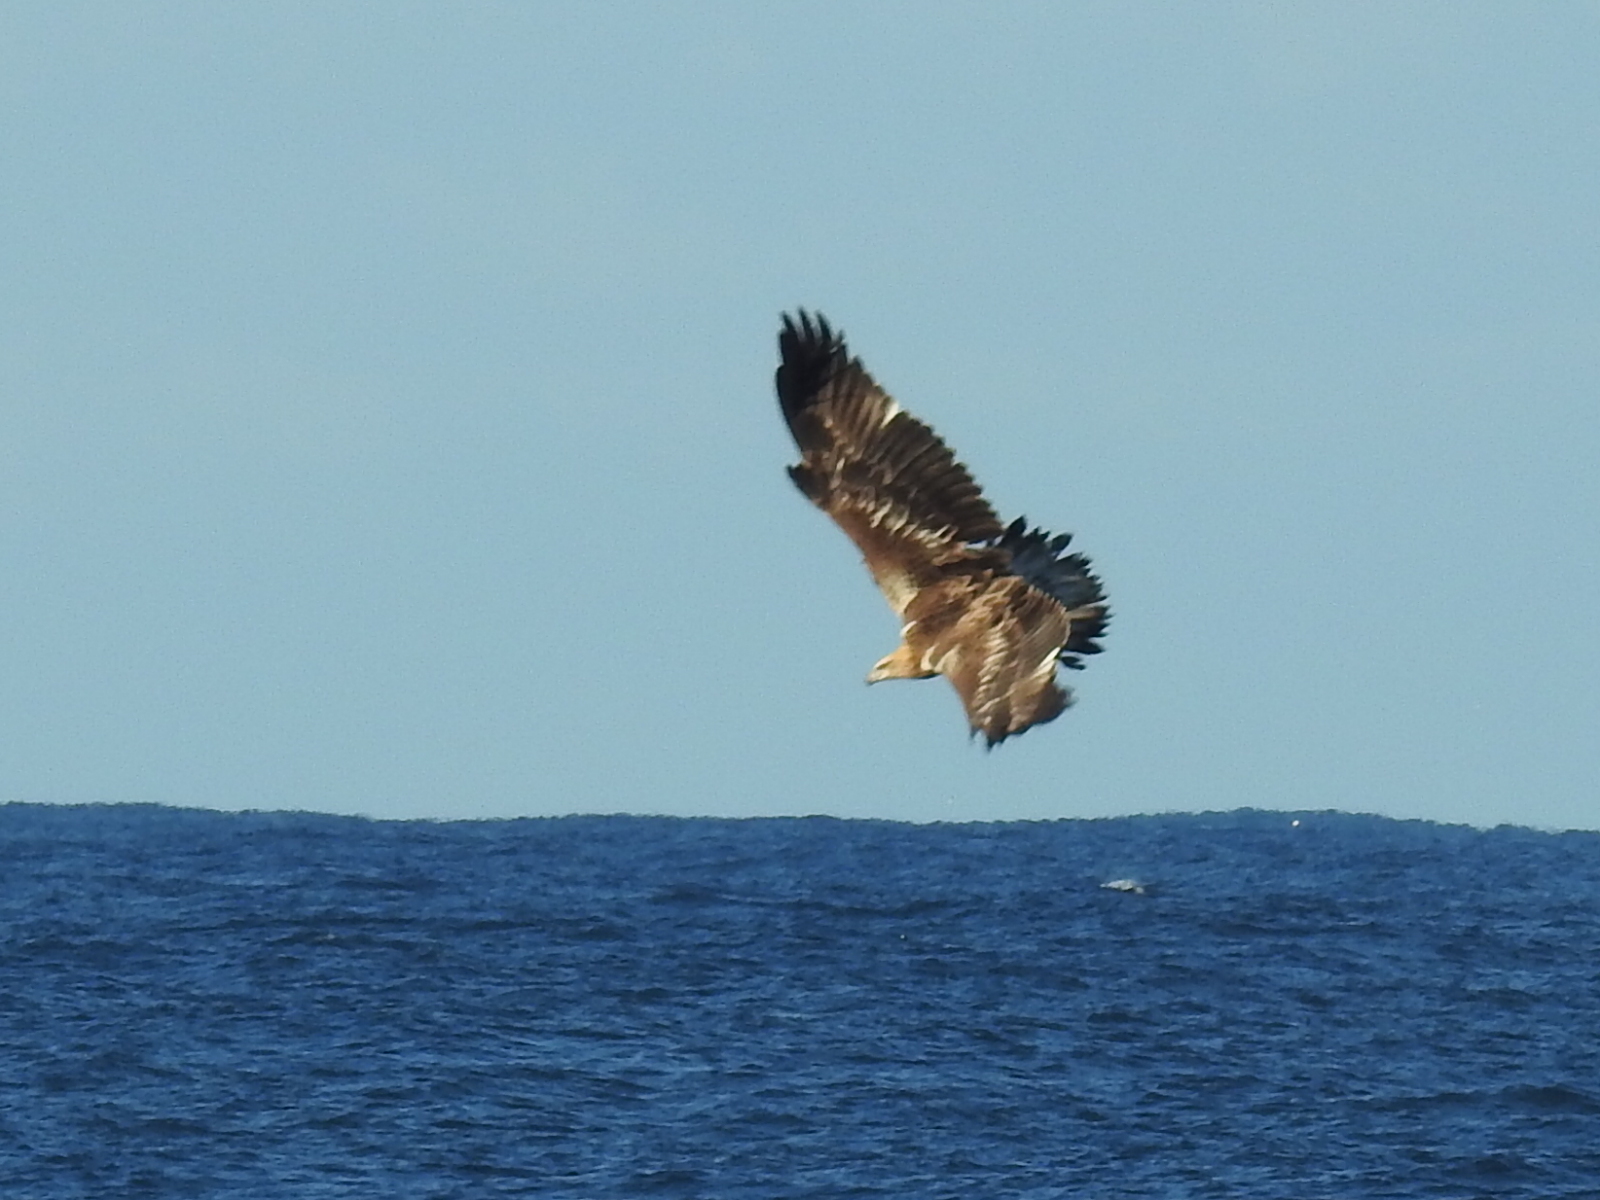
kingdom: Animalia
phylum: Chordata
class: Aves
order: Accipitriformes
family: Accipitridae
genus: Haliaeetus
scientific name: Haliaeetus leucogaster
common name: White-bellied sea eagle
